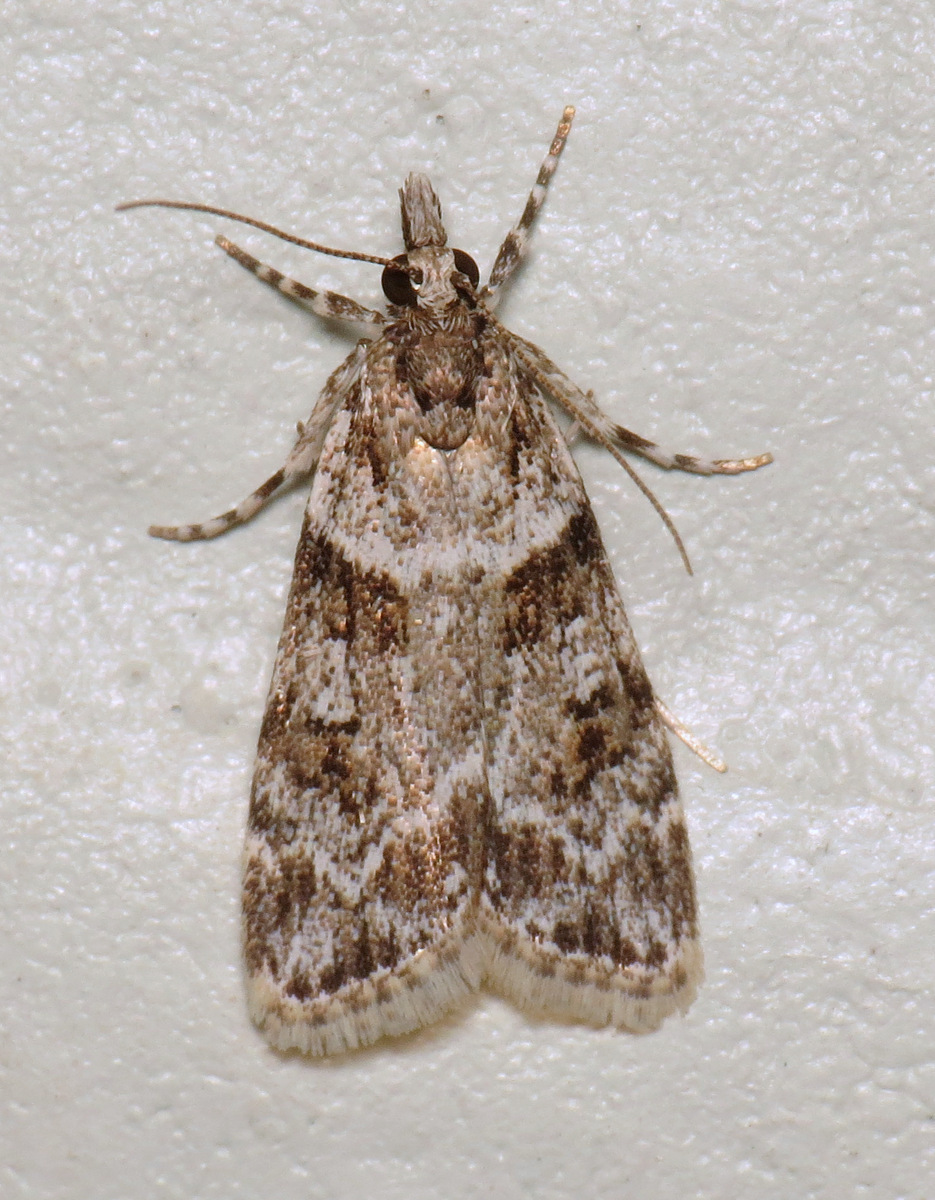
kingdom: Animalia
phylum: Arthropoda
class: Insecta
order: Lepidoptera
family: Crambidae
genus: Scoparia
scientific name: Scoparia biplagialis
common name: Double-striped scoparia moth
